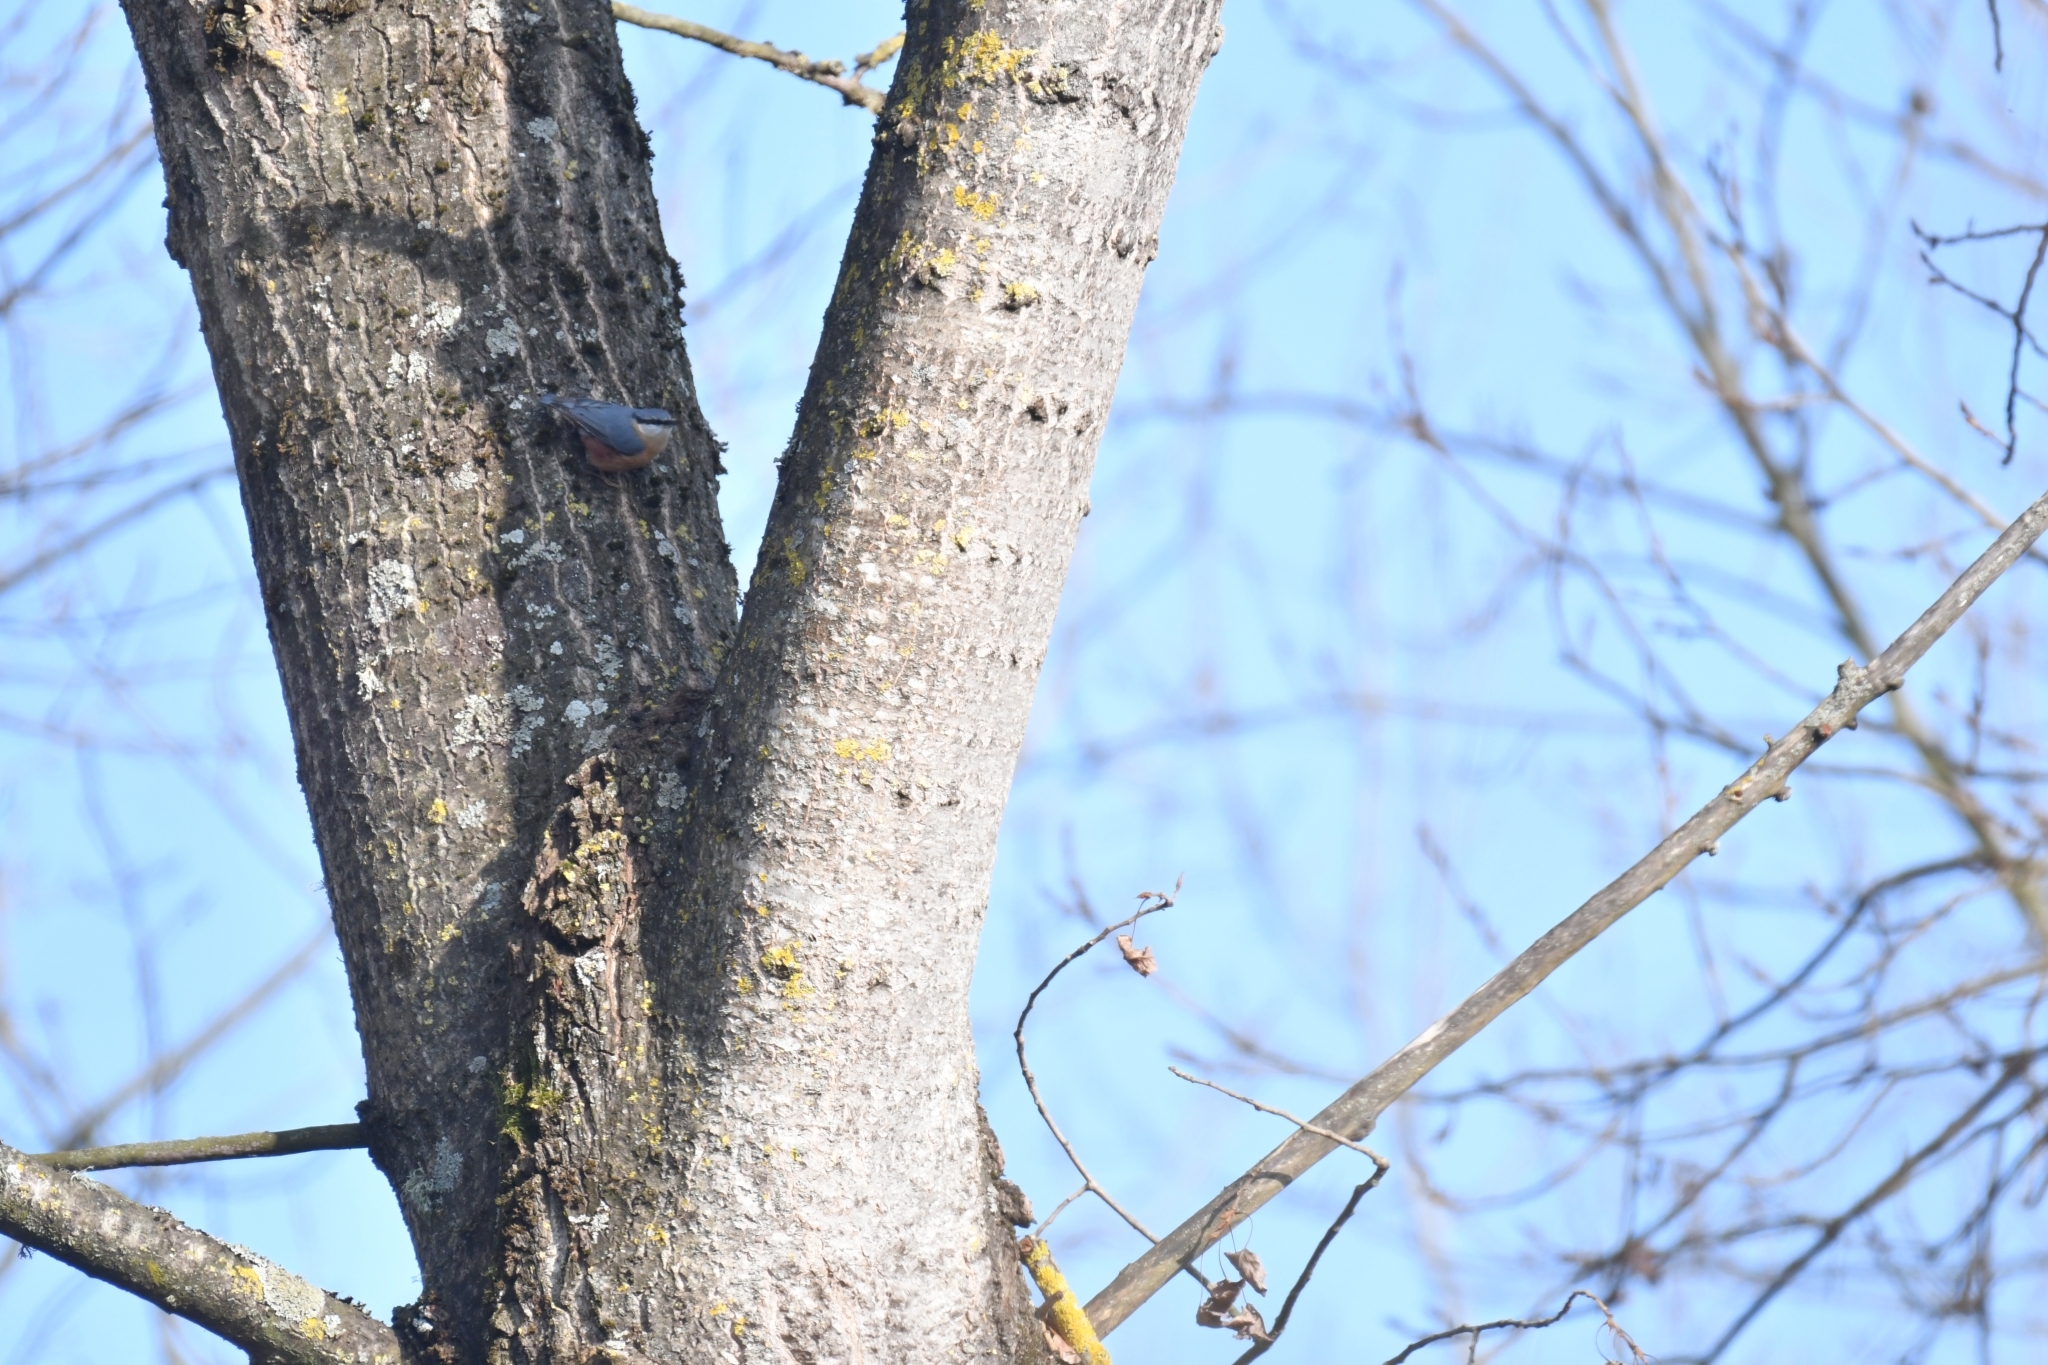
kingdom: Animalia
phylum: Chordata
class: Aves
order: Passeriformes
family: Sittidae
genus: Sitta
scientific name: Sitta europaea
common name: Eurasian nuthatch
